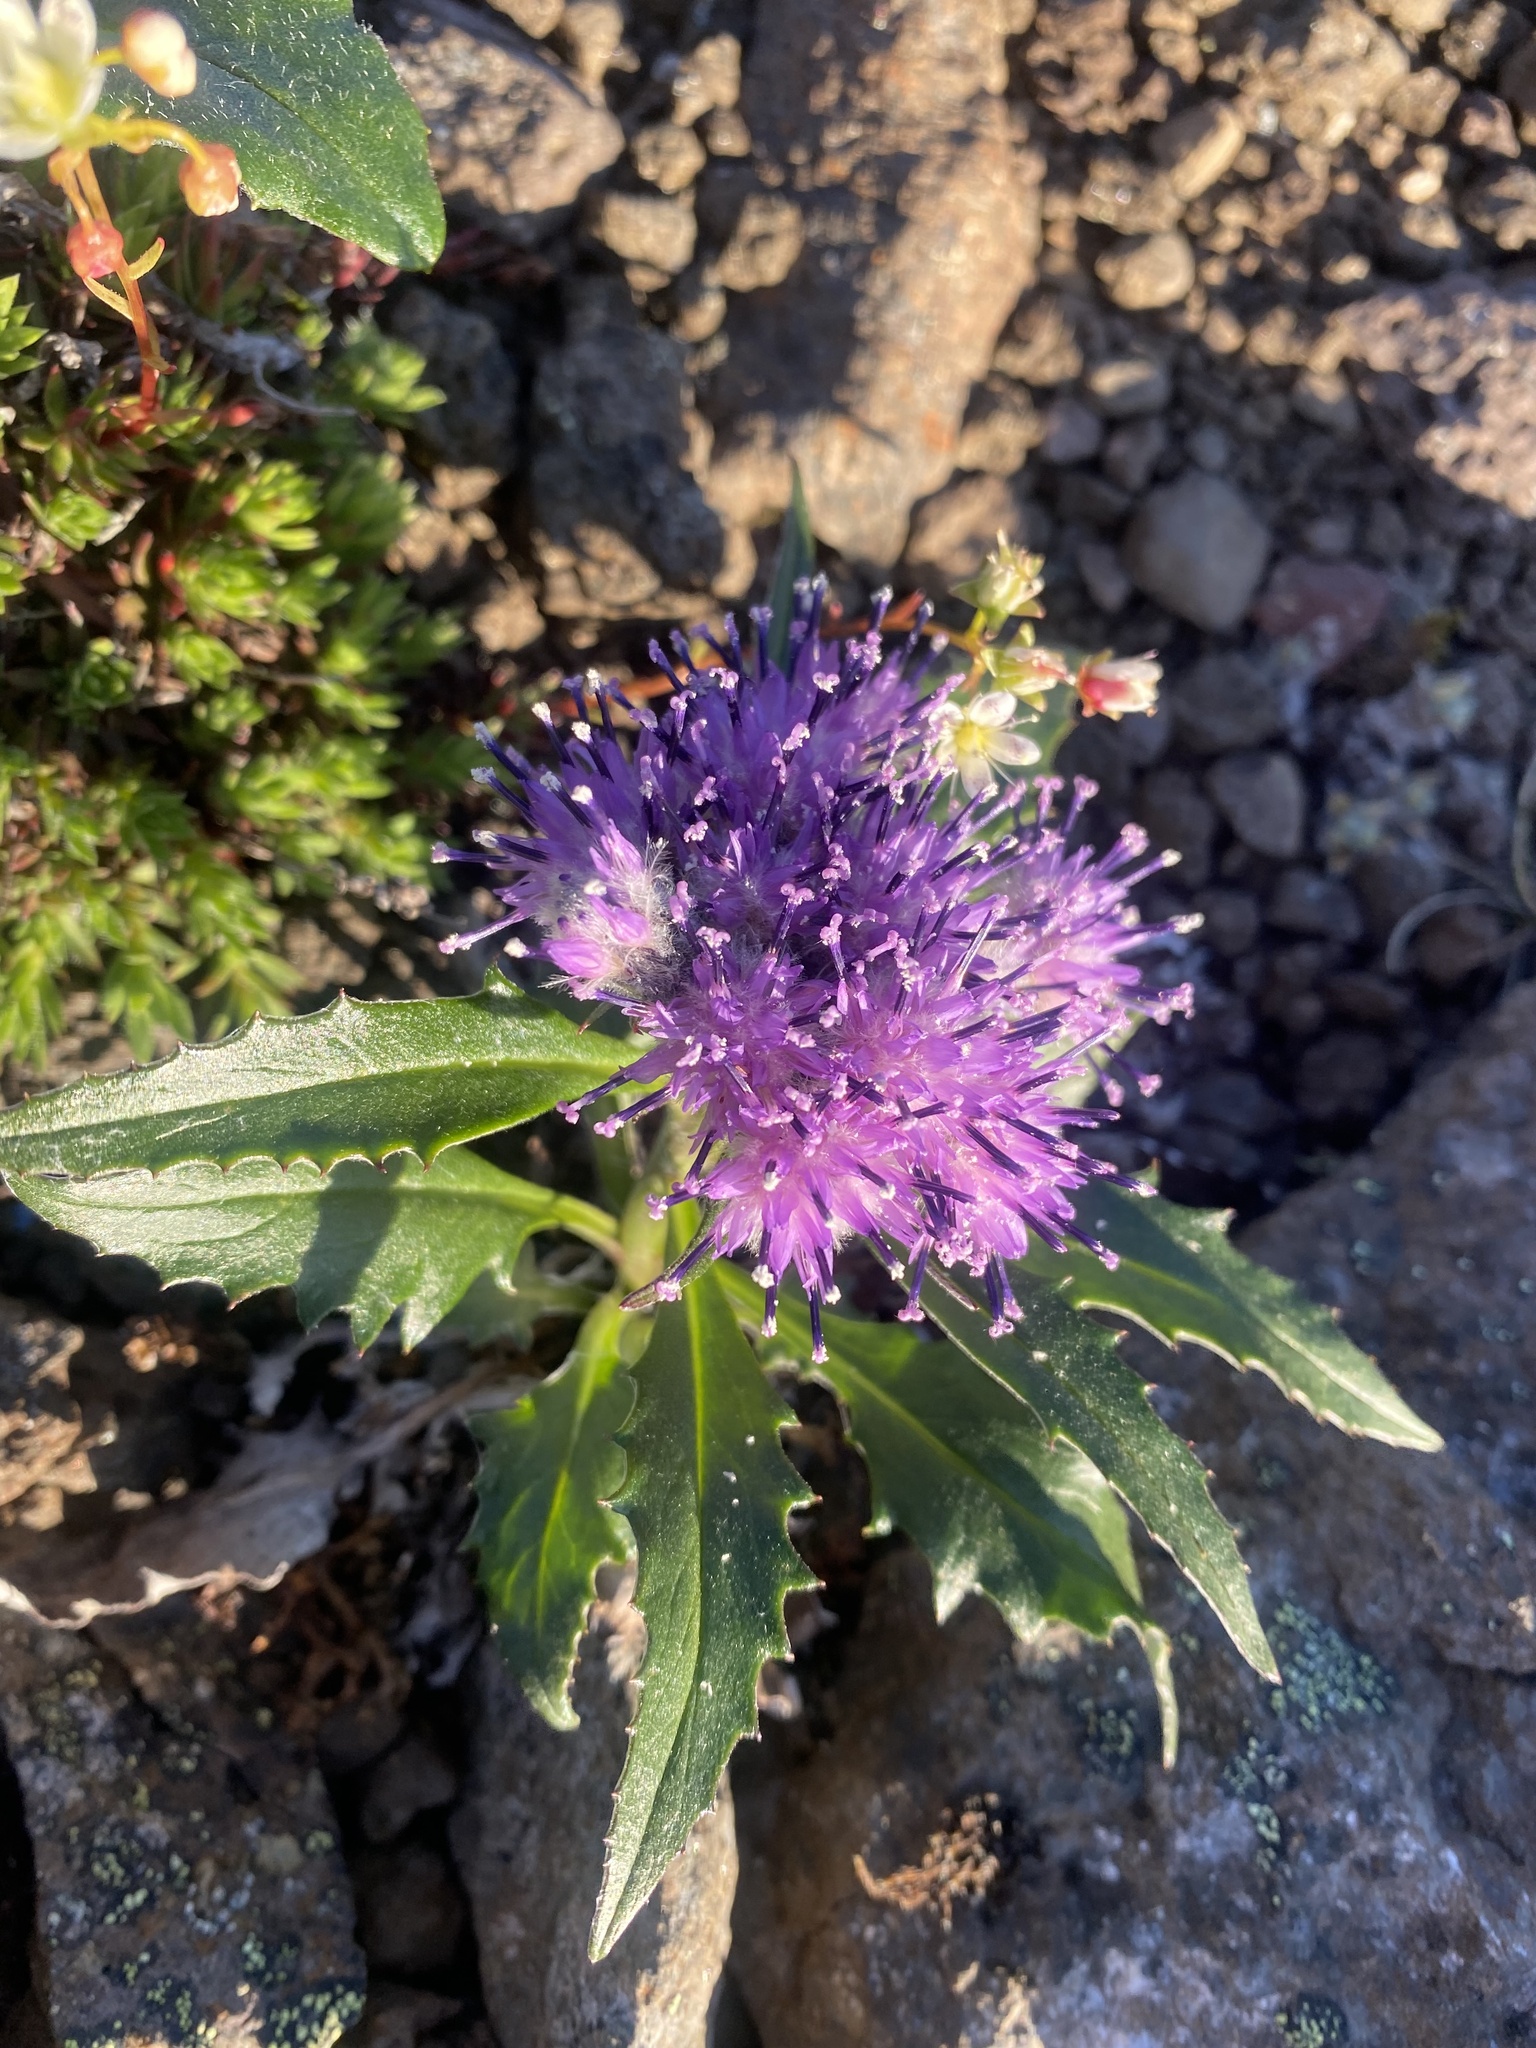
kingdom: Plantae
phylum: Tracheophyta
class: Magnoliopsida
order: Asterales
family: Asteraceae
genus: Saussurea
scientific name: Saussurea denticulata
